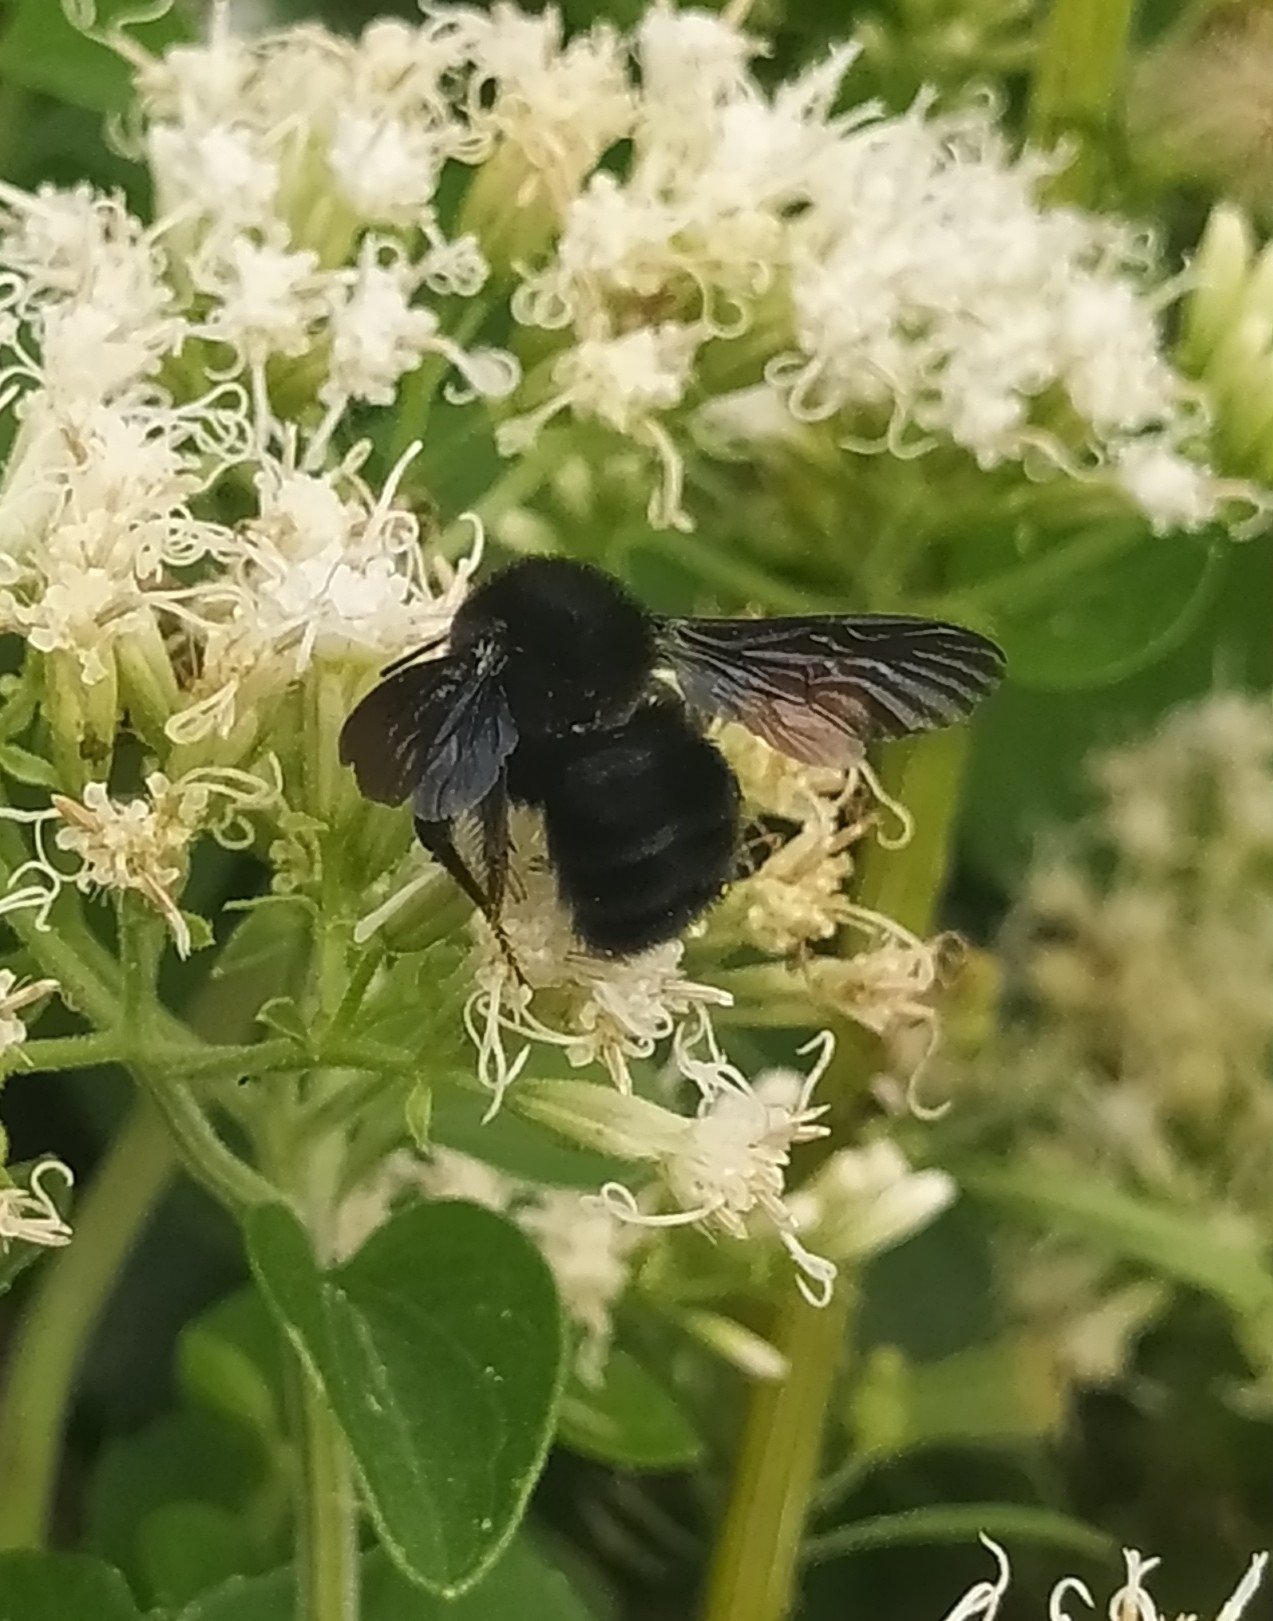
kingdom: Animalia
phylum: Arthropoda
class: Insecta
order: Hymenoptera
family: Apidae
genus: Bombus
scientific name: Bombus pauloensis
